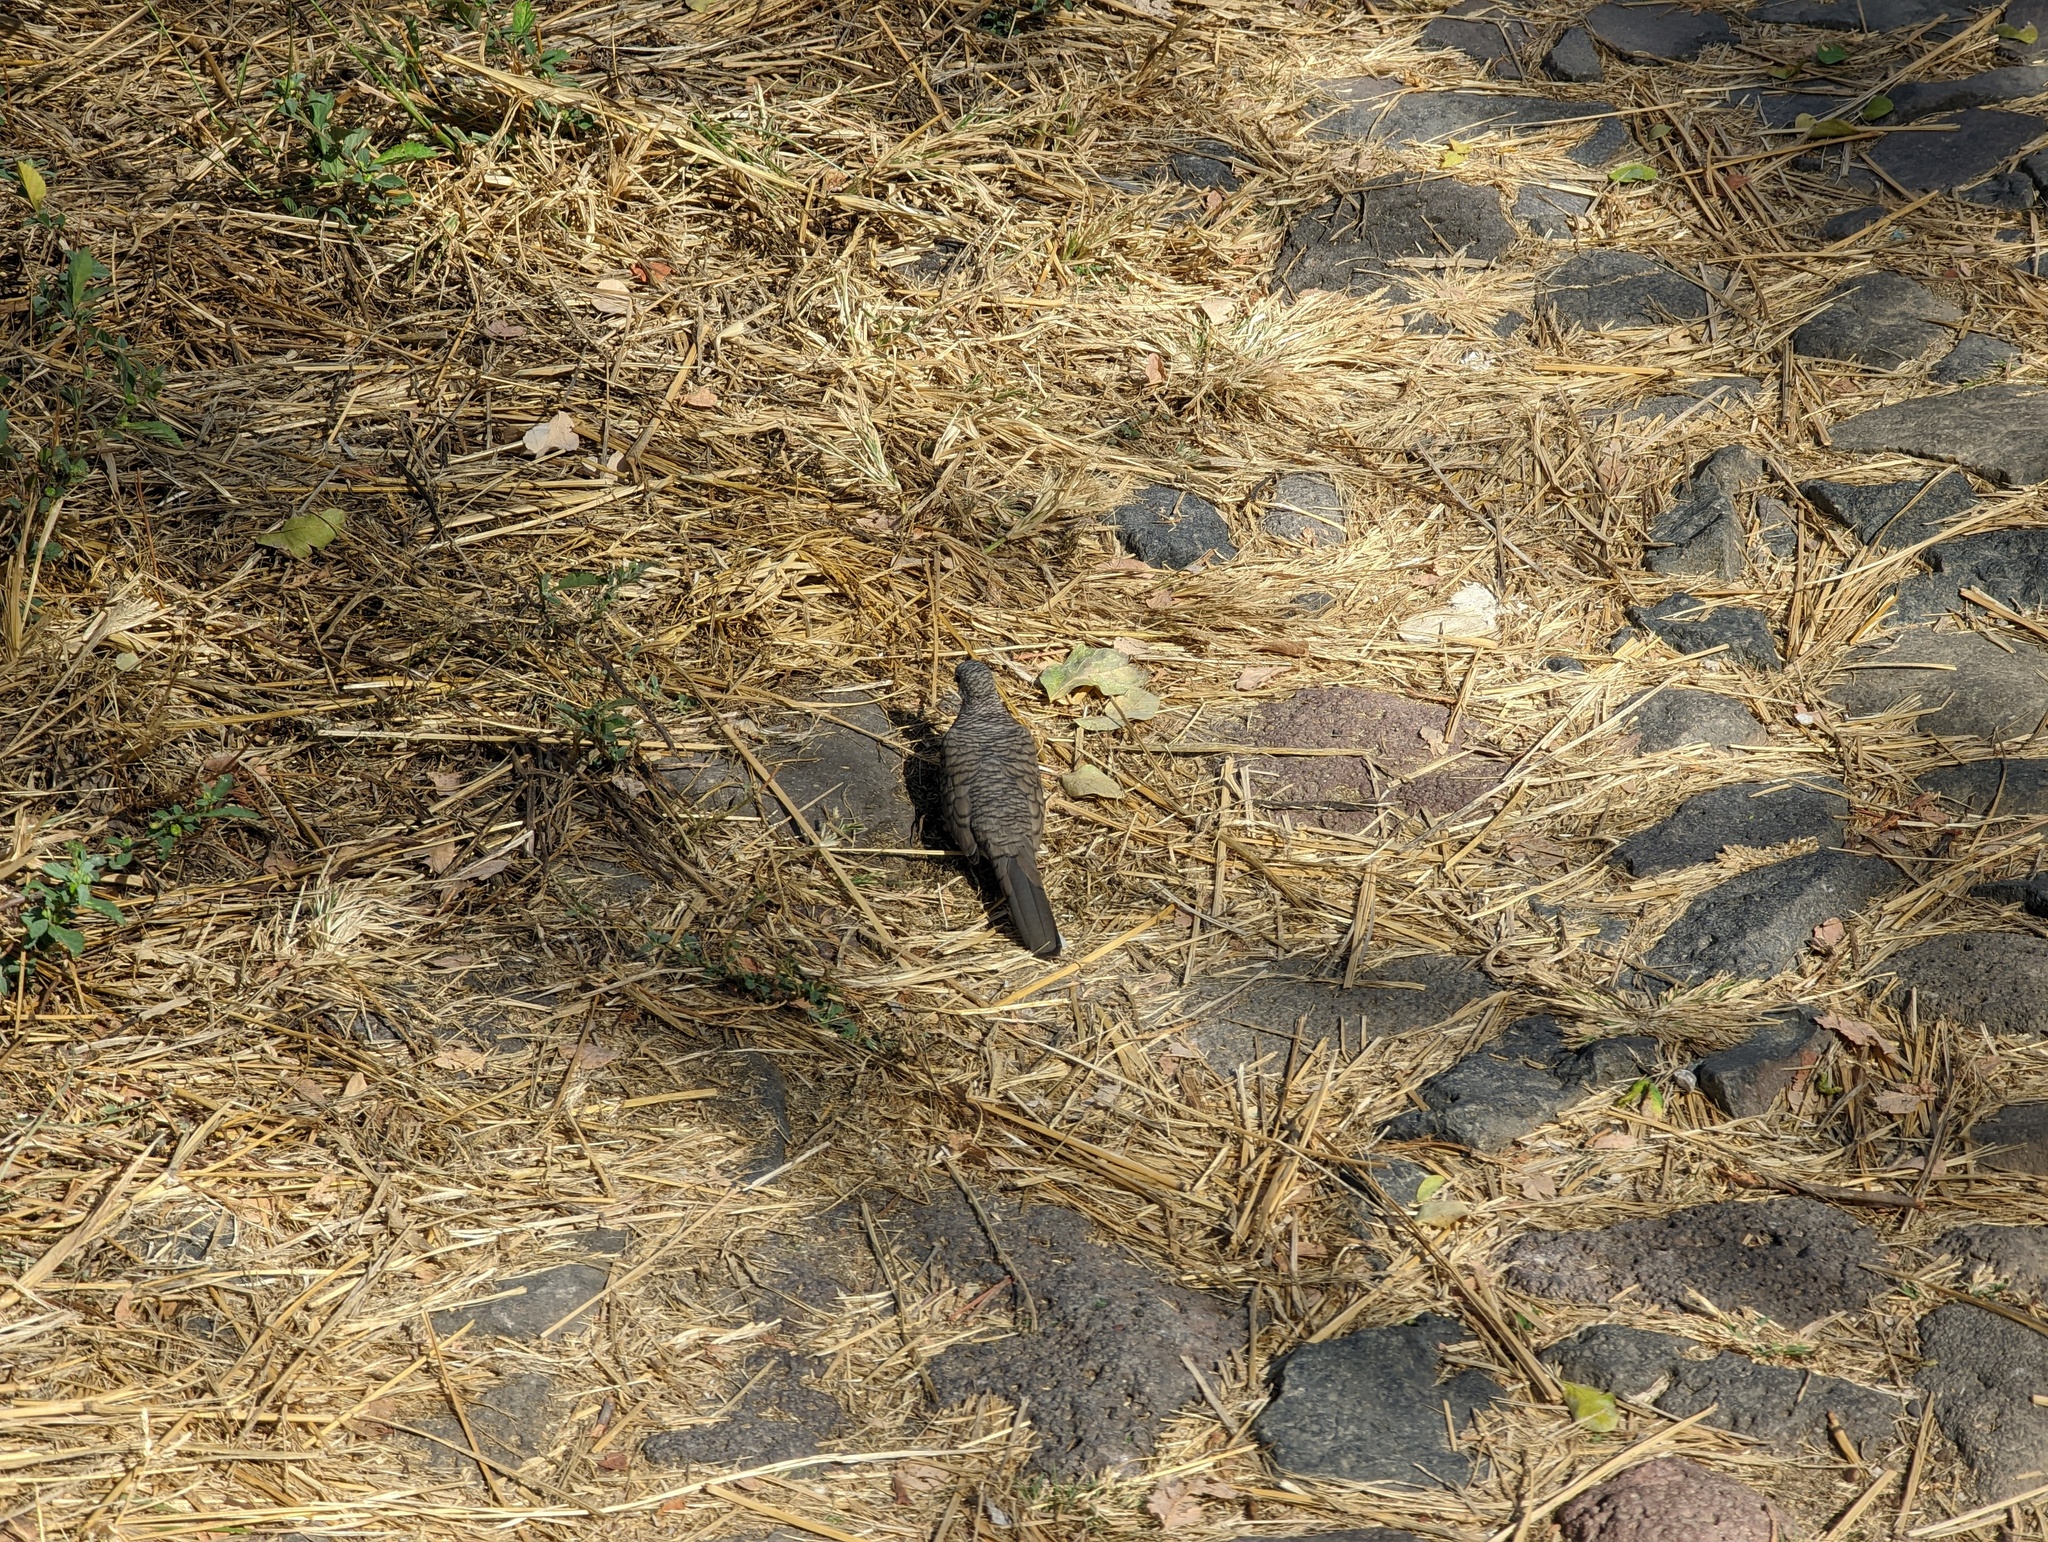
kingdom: Animalia
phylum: Chordata
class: Aves
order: Columbiformes
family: Columbidae
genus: Columbina
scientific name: Columbina inca
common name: Inca dove
